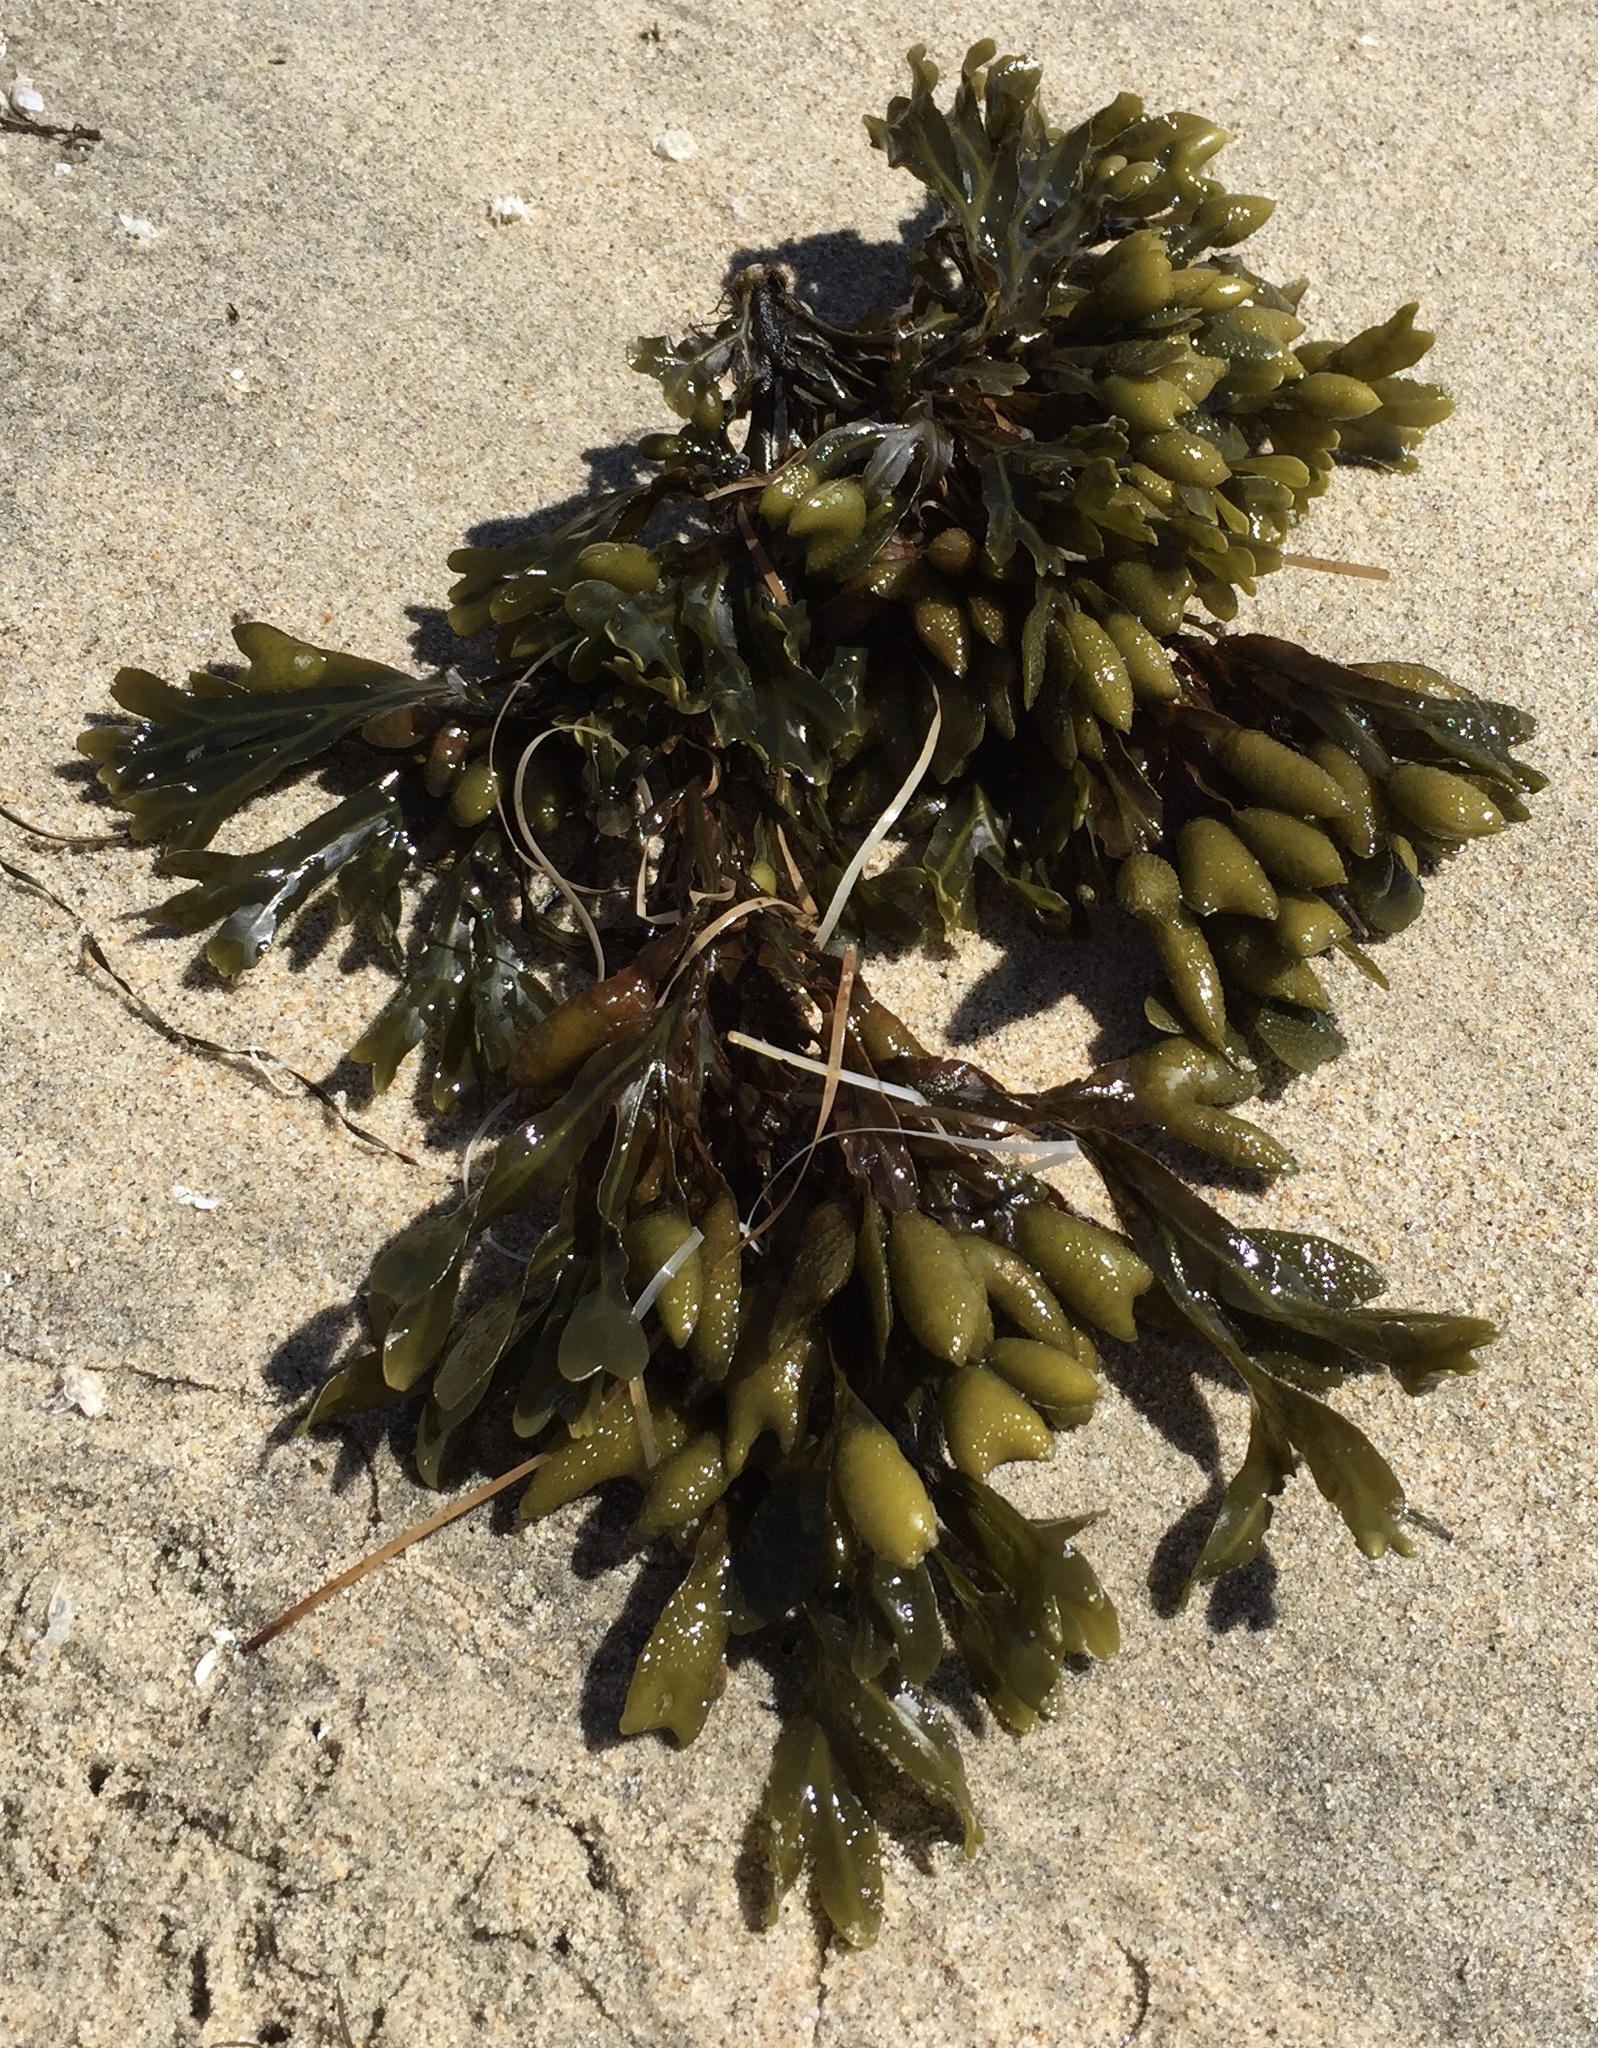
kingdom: Chromista
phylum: Ochrophyta
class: Phaeophyceae
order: Fucales
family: Fucaceae
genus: Fucus
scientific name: Fucus distichus
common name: Rockweed
